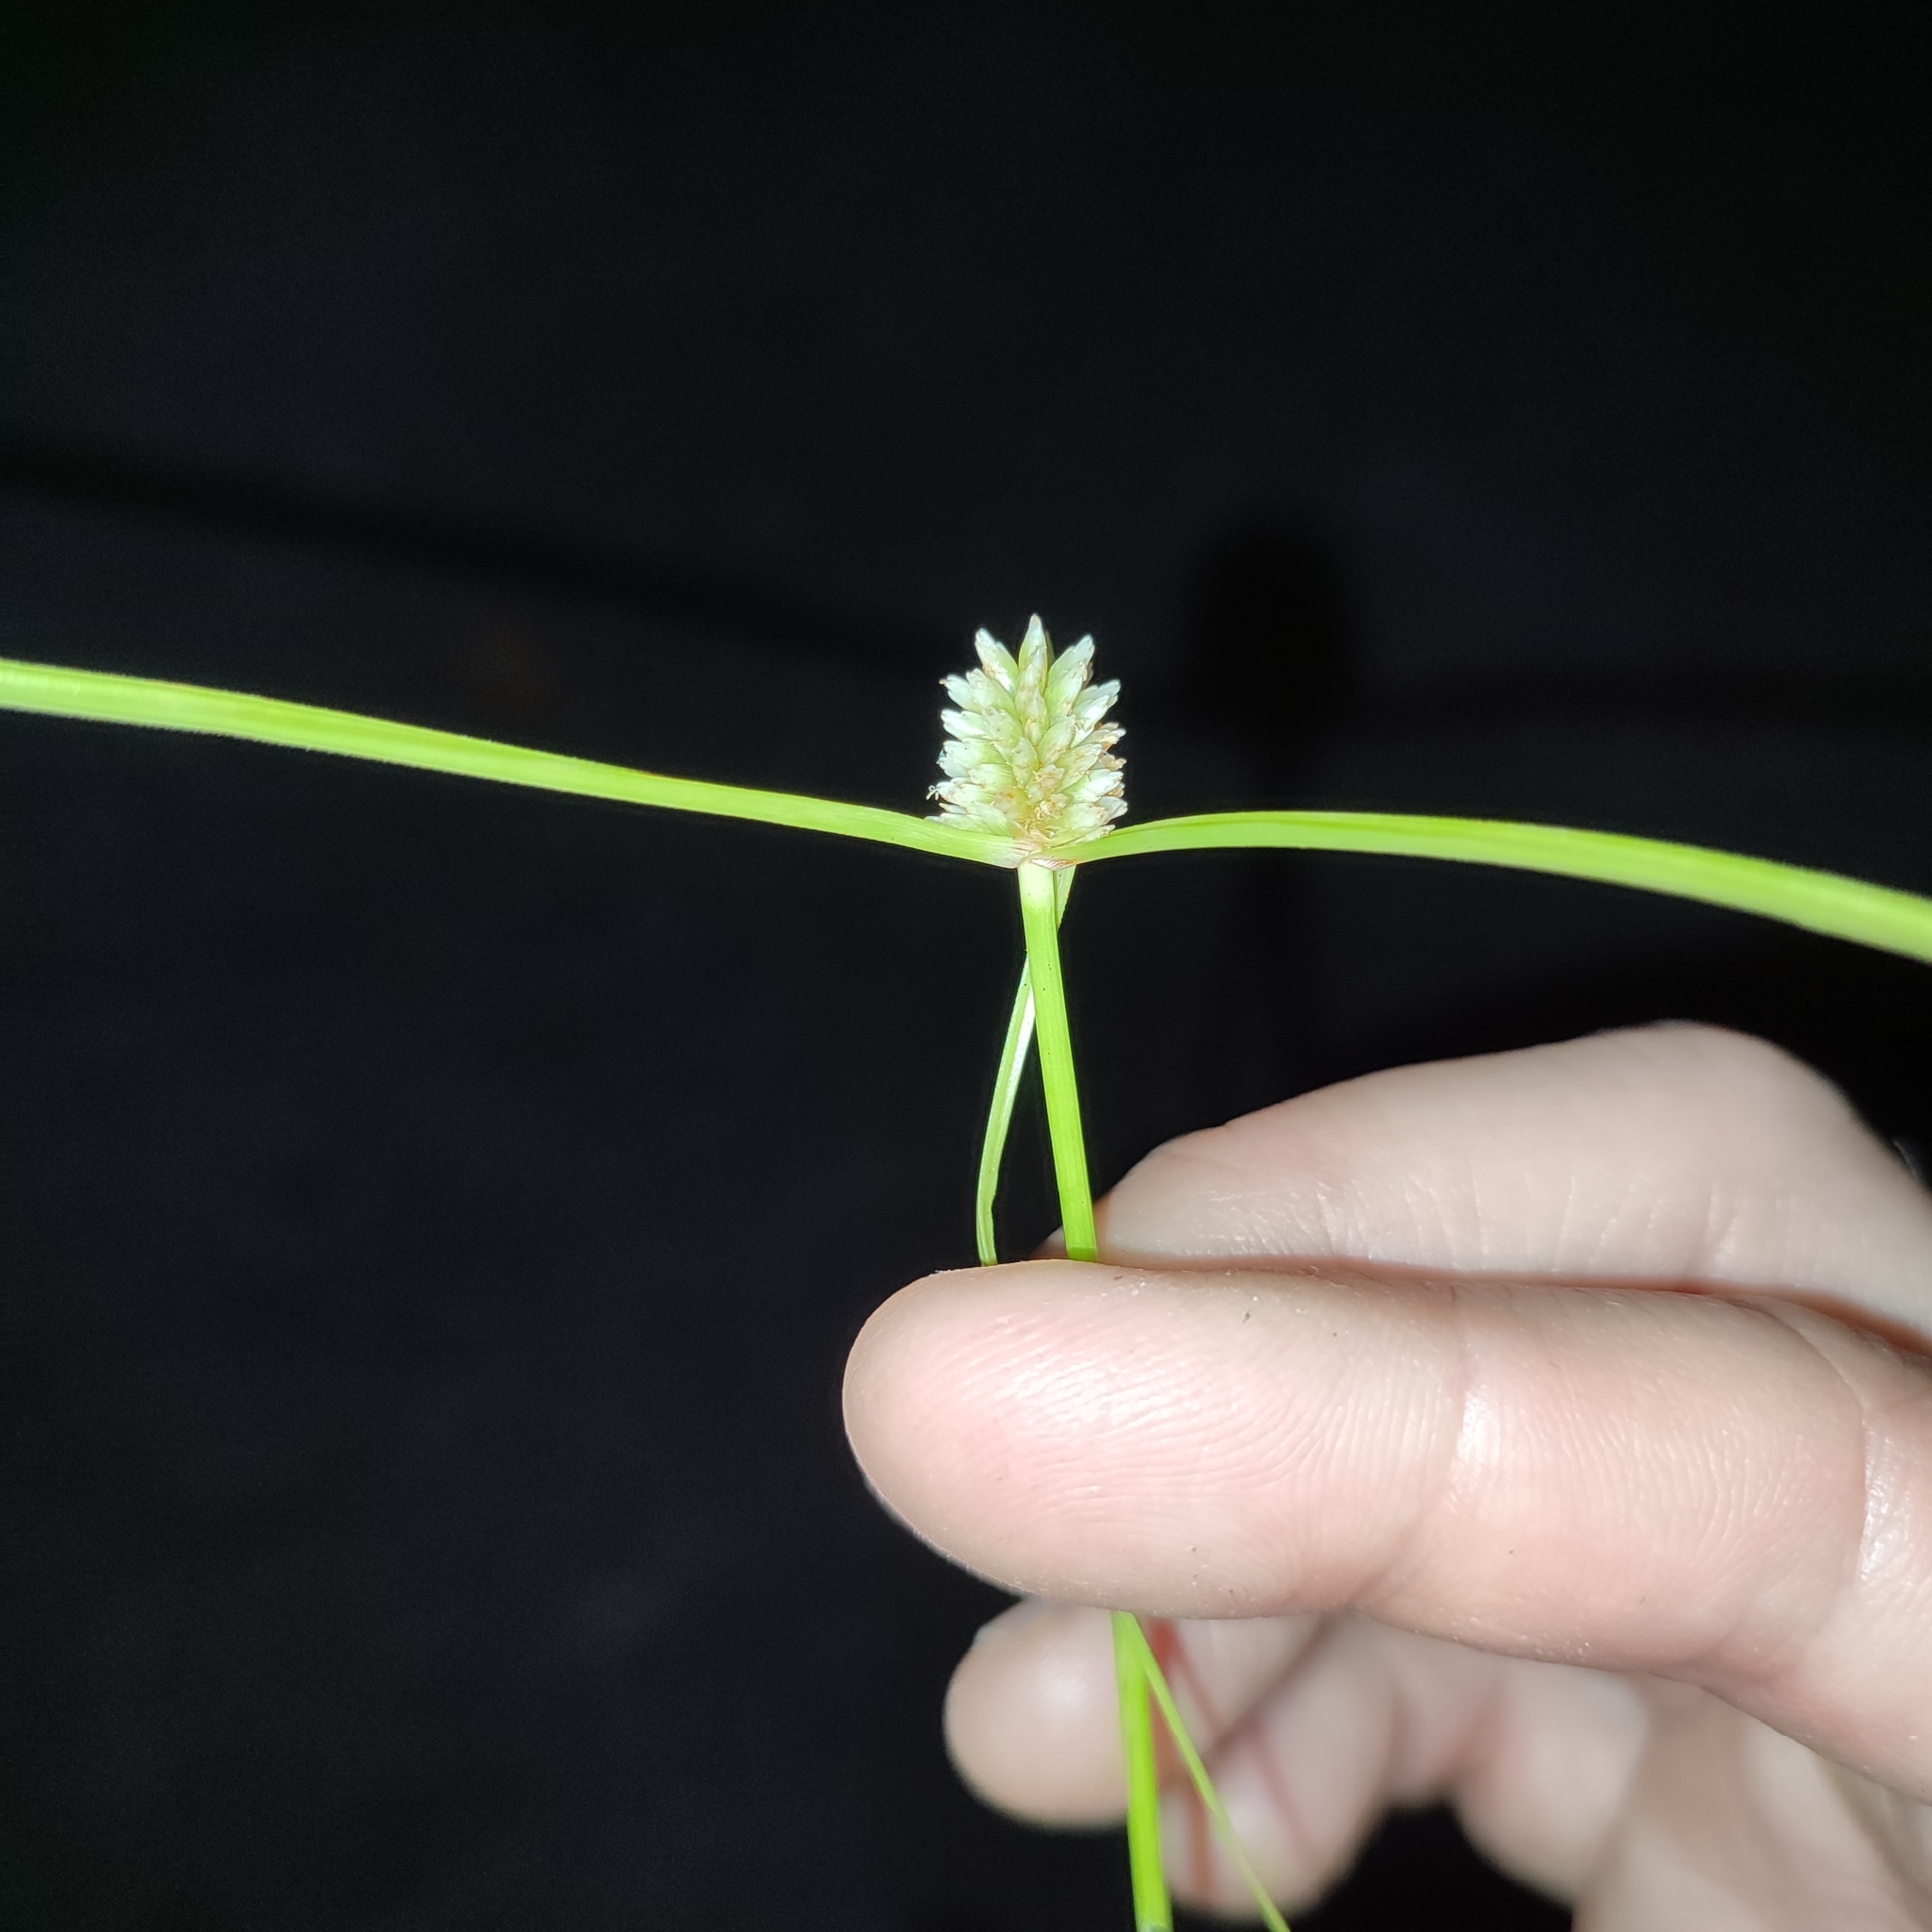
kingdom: Plantae
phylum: Tracheophyta
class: Liliopsida
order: Poales
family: Cyperaceae
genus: Cyperus
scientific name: Cyperus mindorensis
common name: Flatsedge
